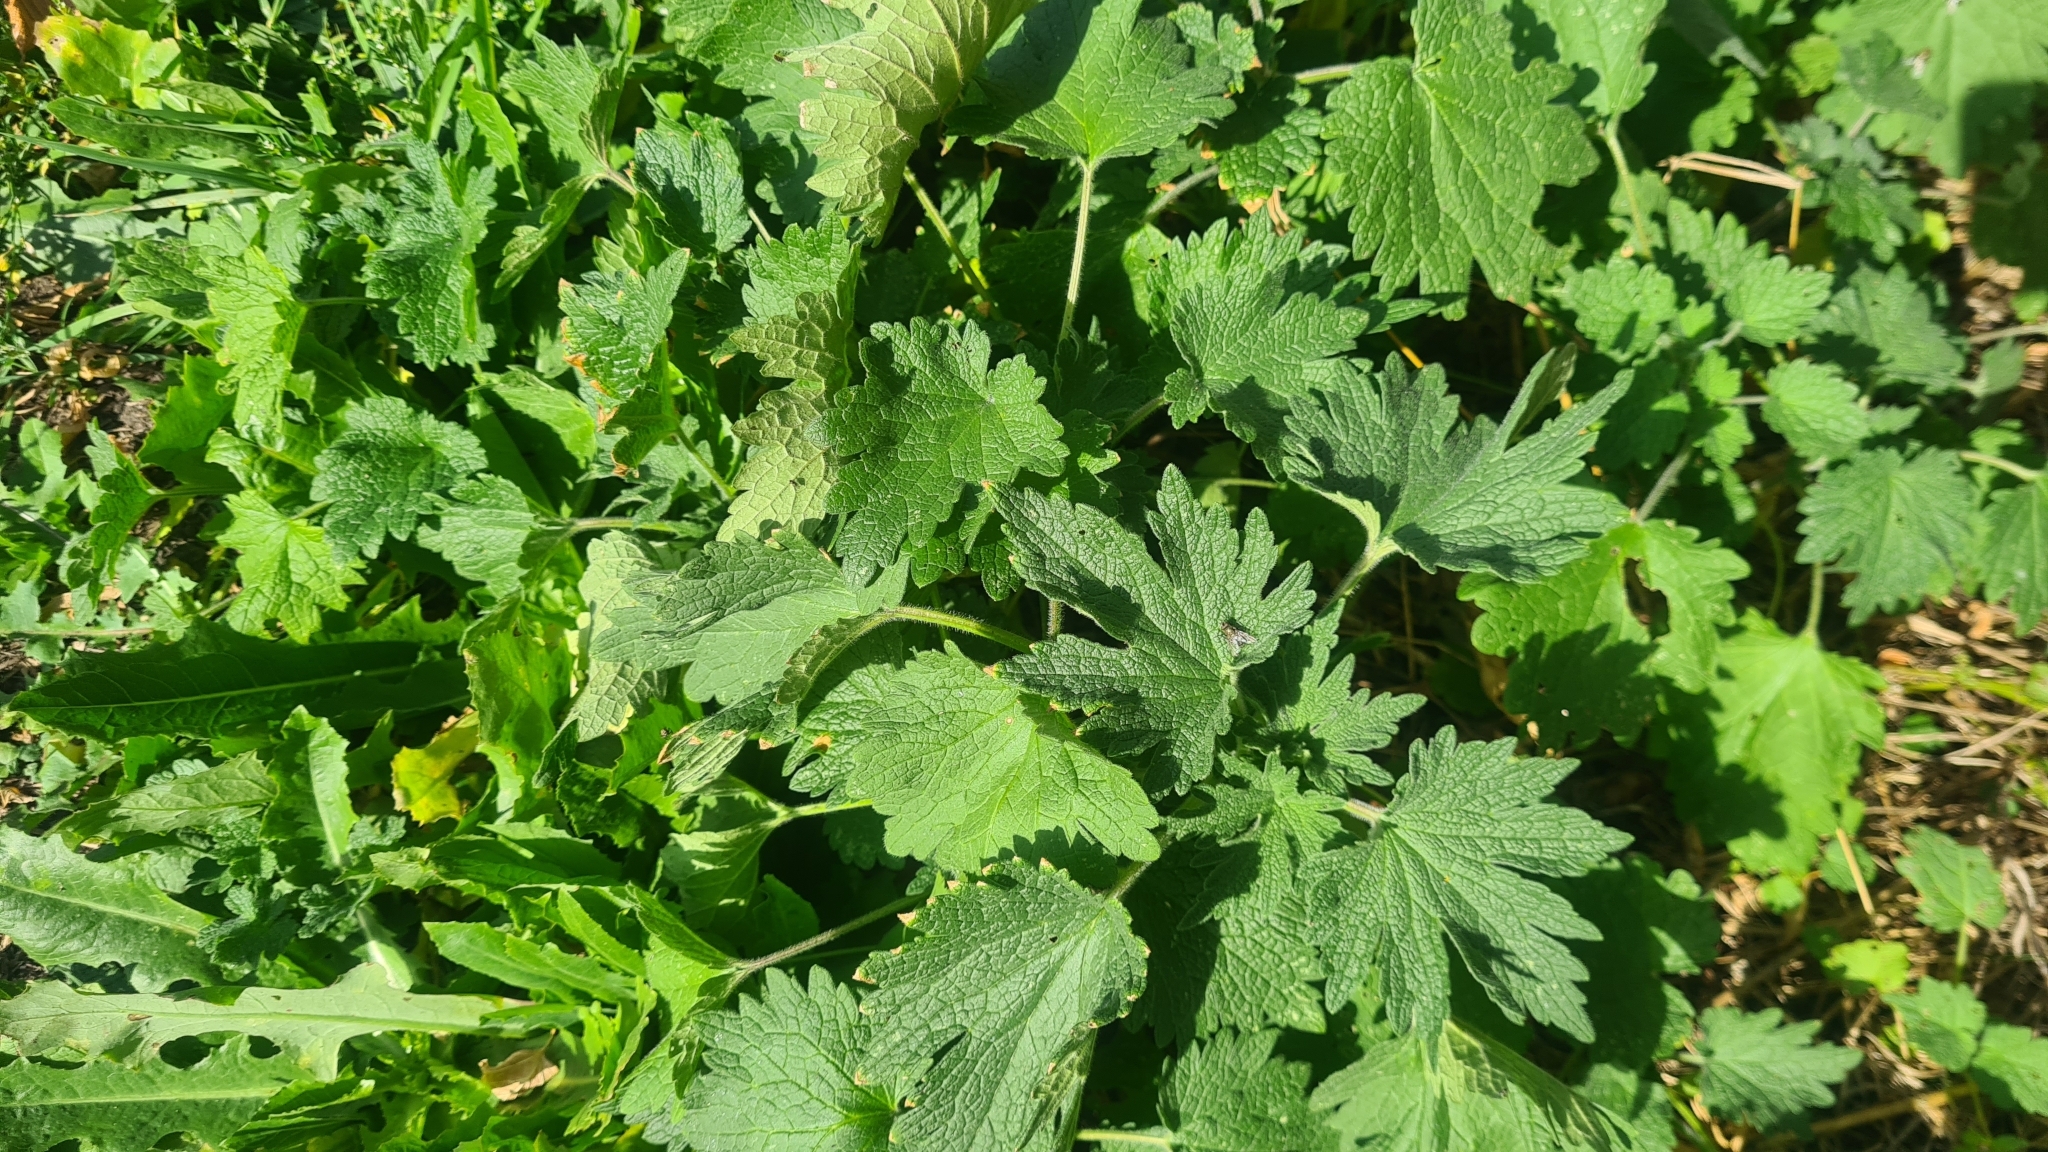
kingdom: Plantae
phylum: Tracheophyta
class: Magnoliopsida
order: Lamiales
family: Lamiaceae
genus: Leonurus
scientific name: Leonurus quinquelobatus
